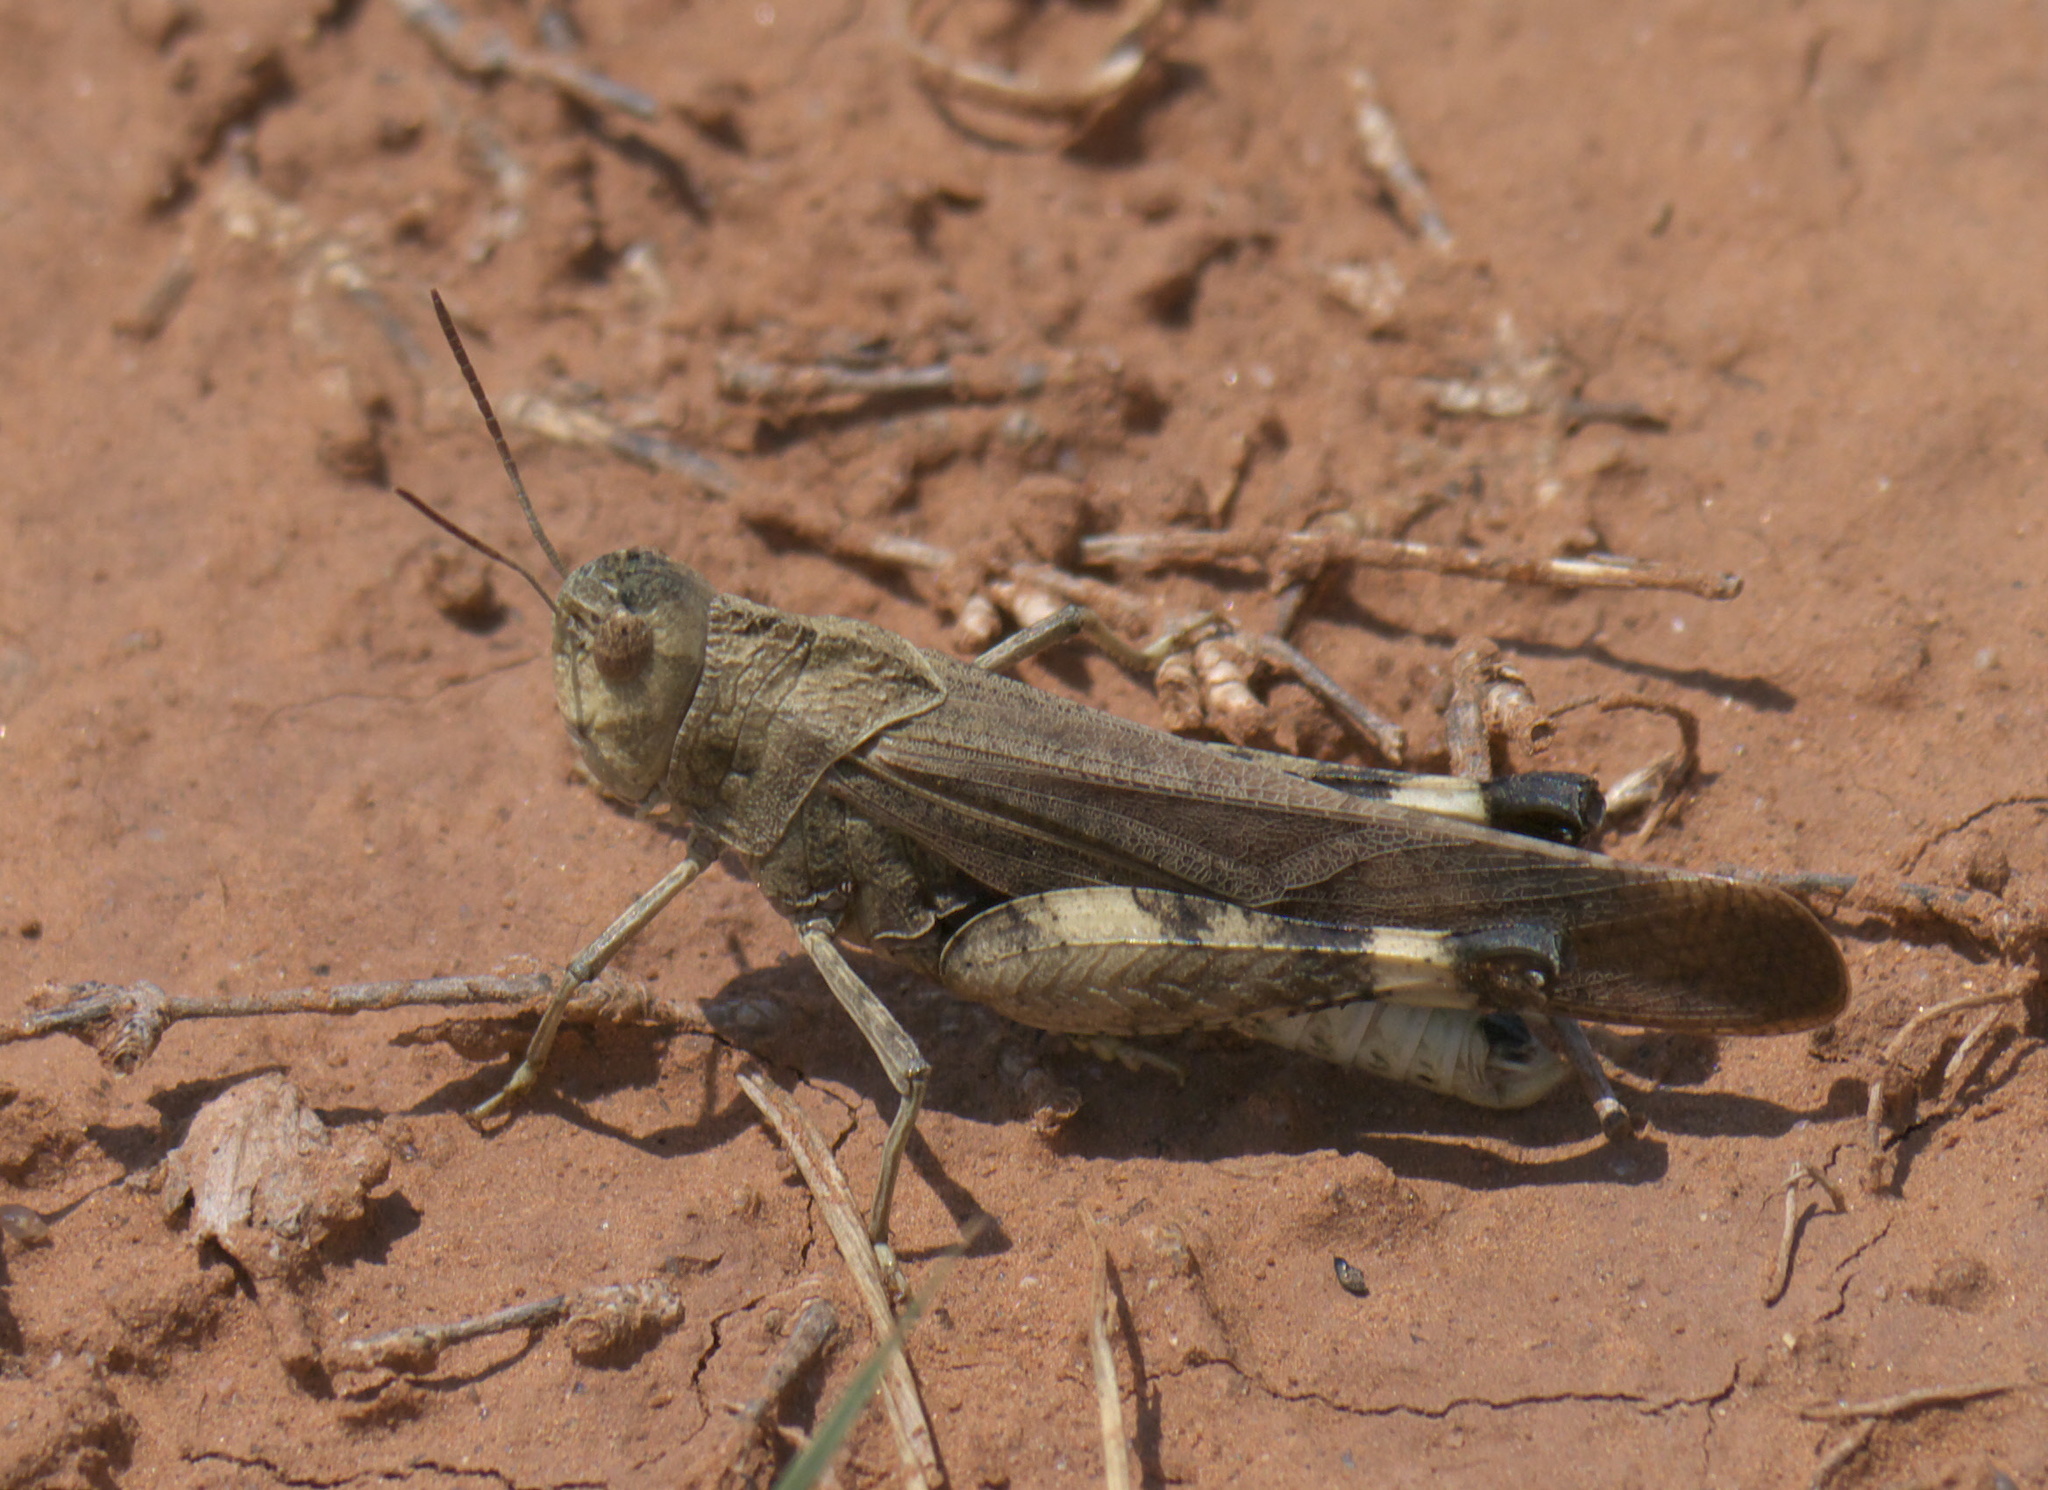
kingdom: Animalia
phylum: Arthropoda
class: Insecta
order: Orthoptera
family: Acrididae
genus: Arphia
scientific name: Arphia simplex
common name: Plains yellow-winged grasshopper
